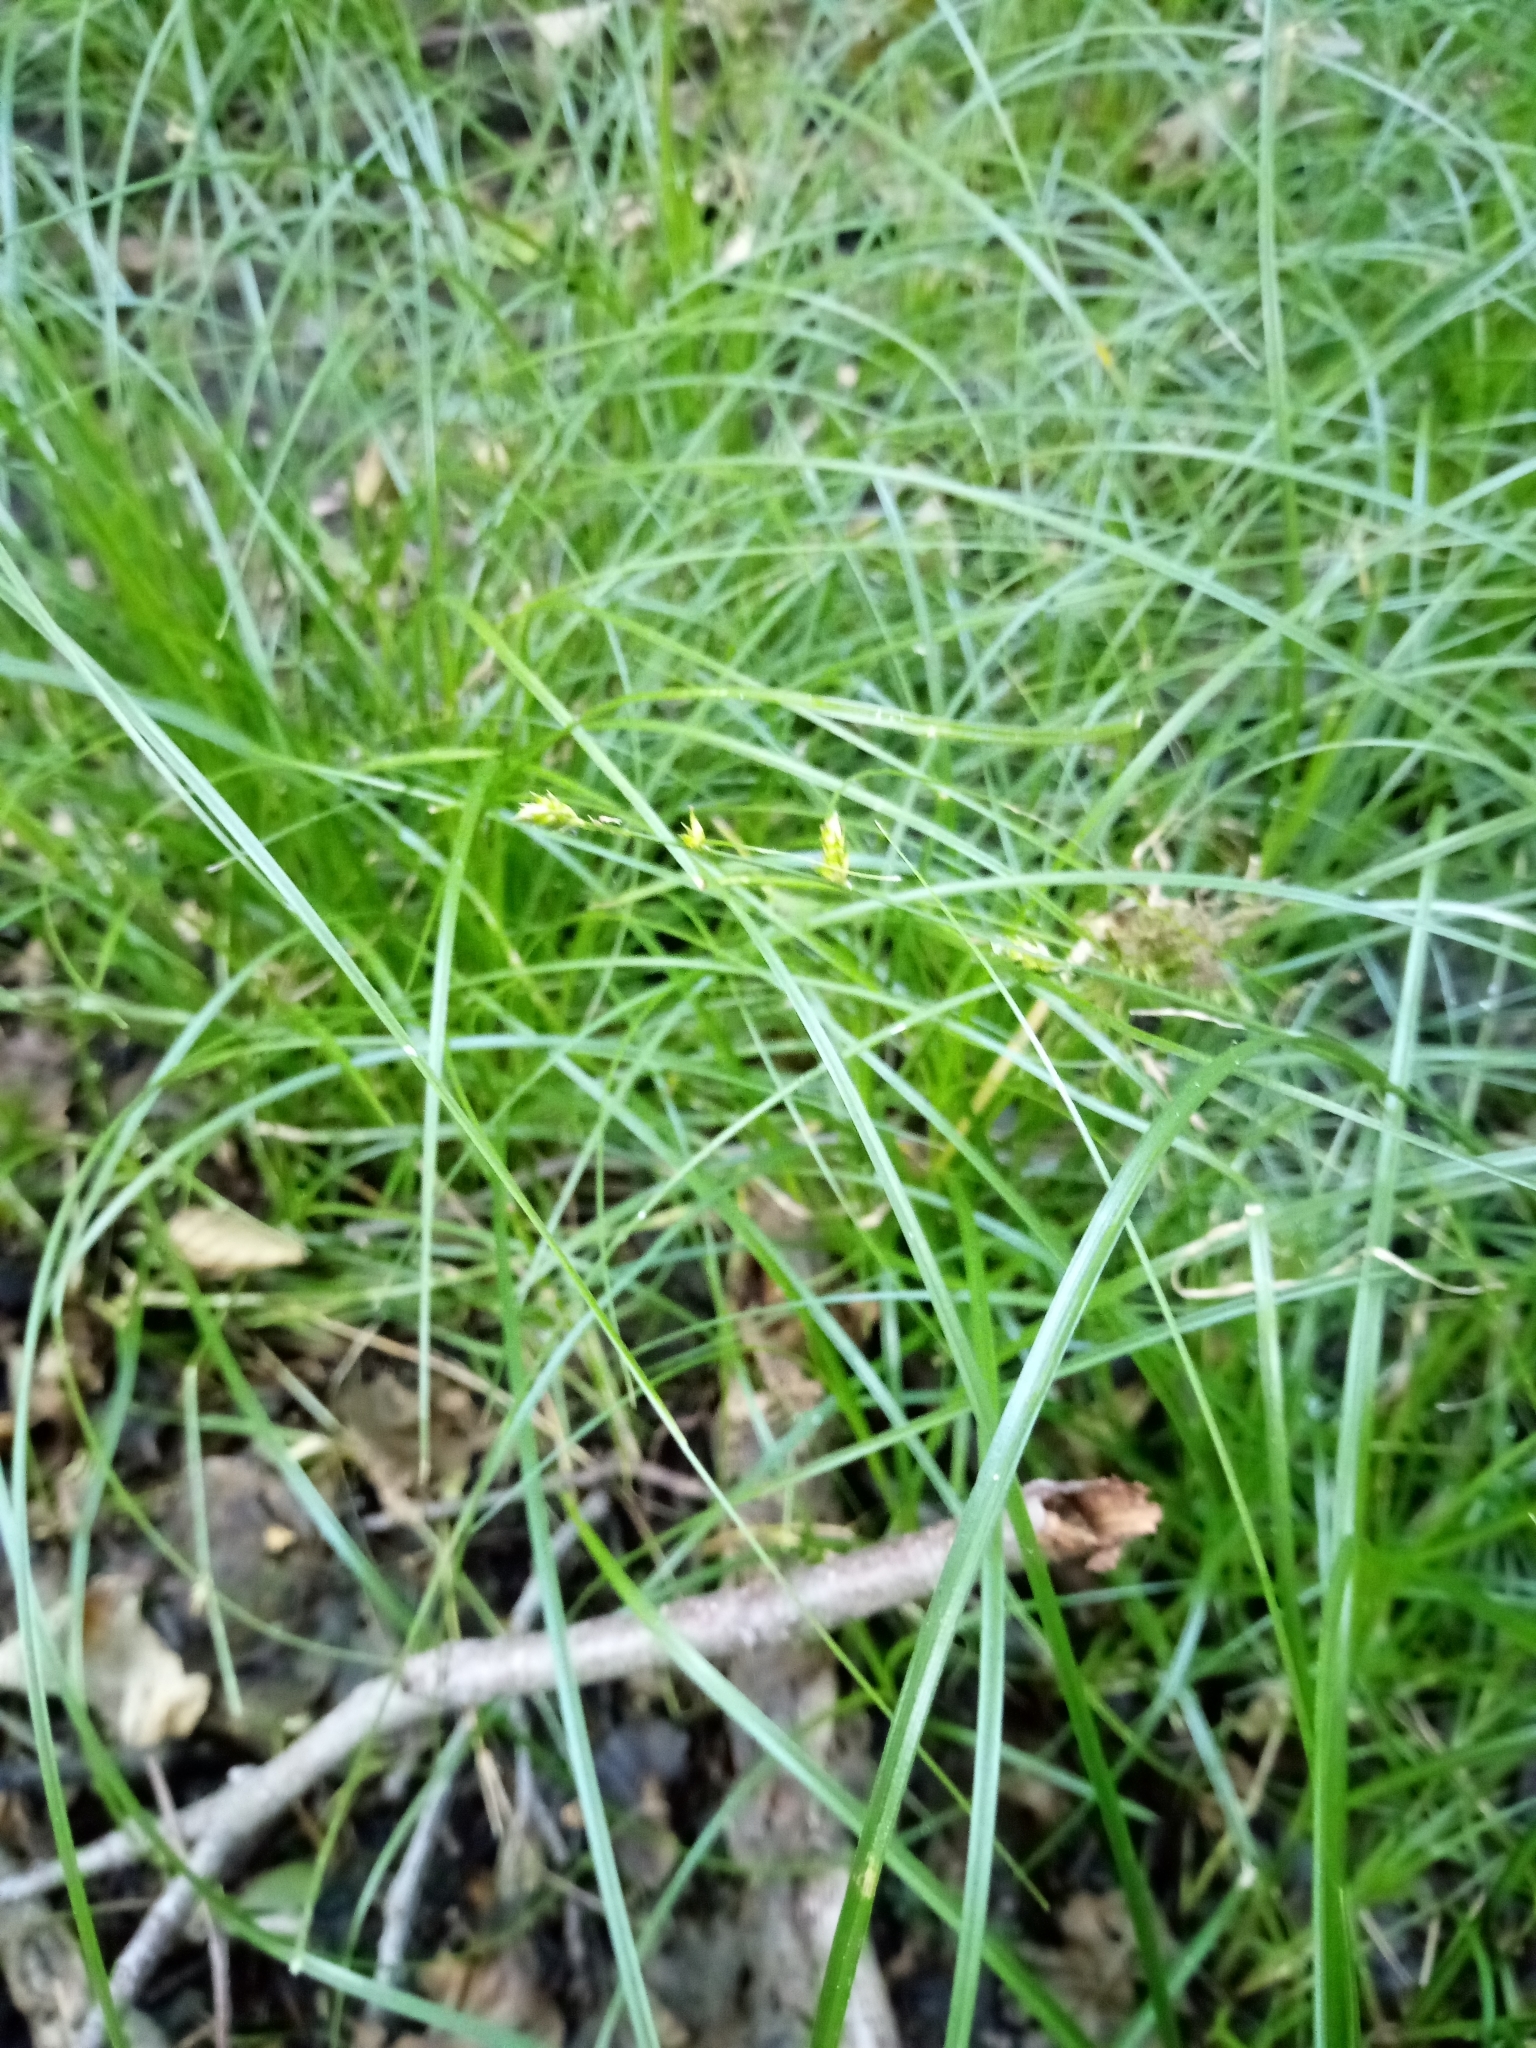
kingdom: Plantae
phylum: Tracheophyta
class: Liliopsida
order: Poales
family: Cyperaceae
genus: Carex
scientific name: Carex remota
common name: Remote sedge
